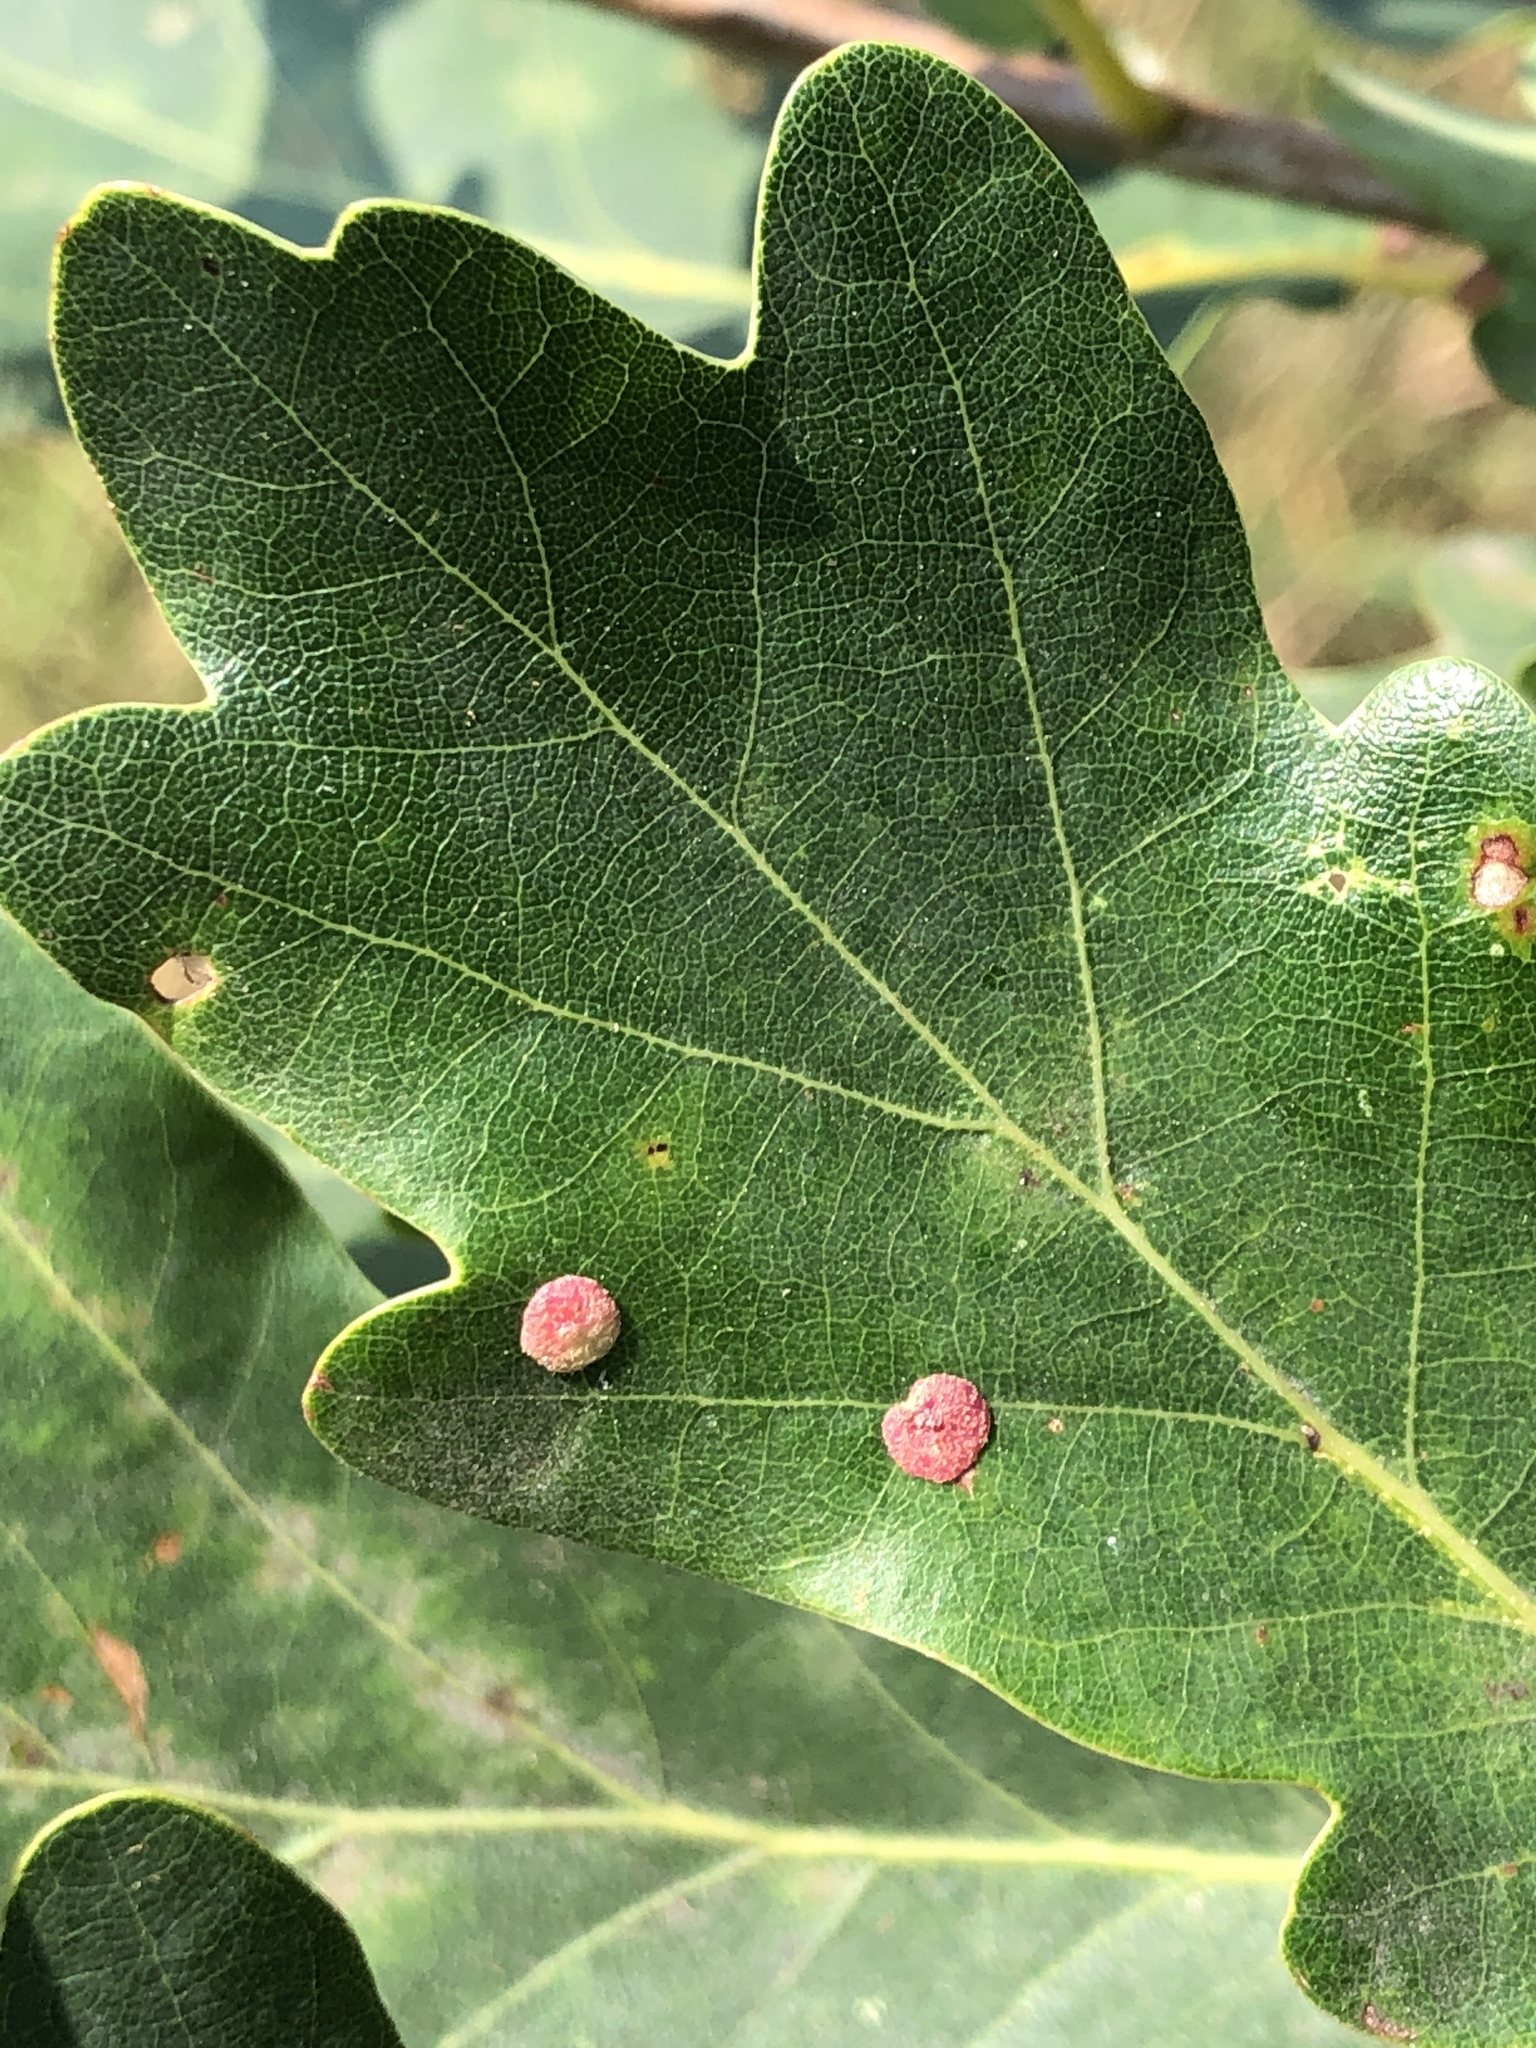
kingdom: Animalia
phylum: Arthropoda
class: Insecta
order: Hymenoptera
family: Cynipidae
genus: Neuroterus
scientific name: Neuroterus quercusbaccarum
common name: Common spangle gall
